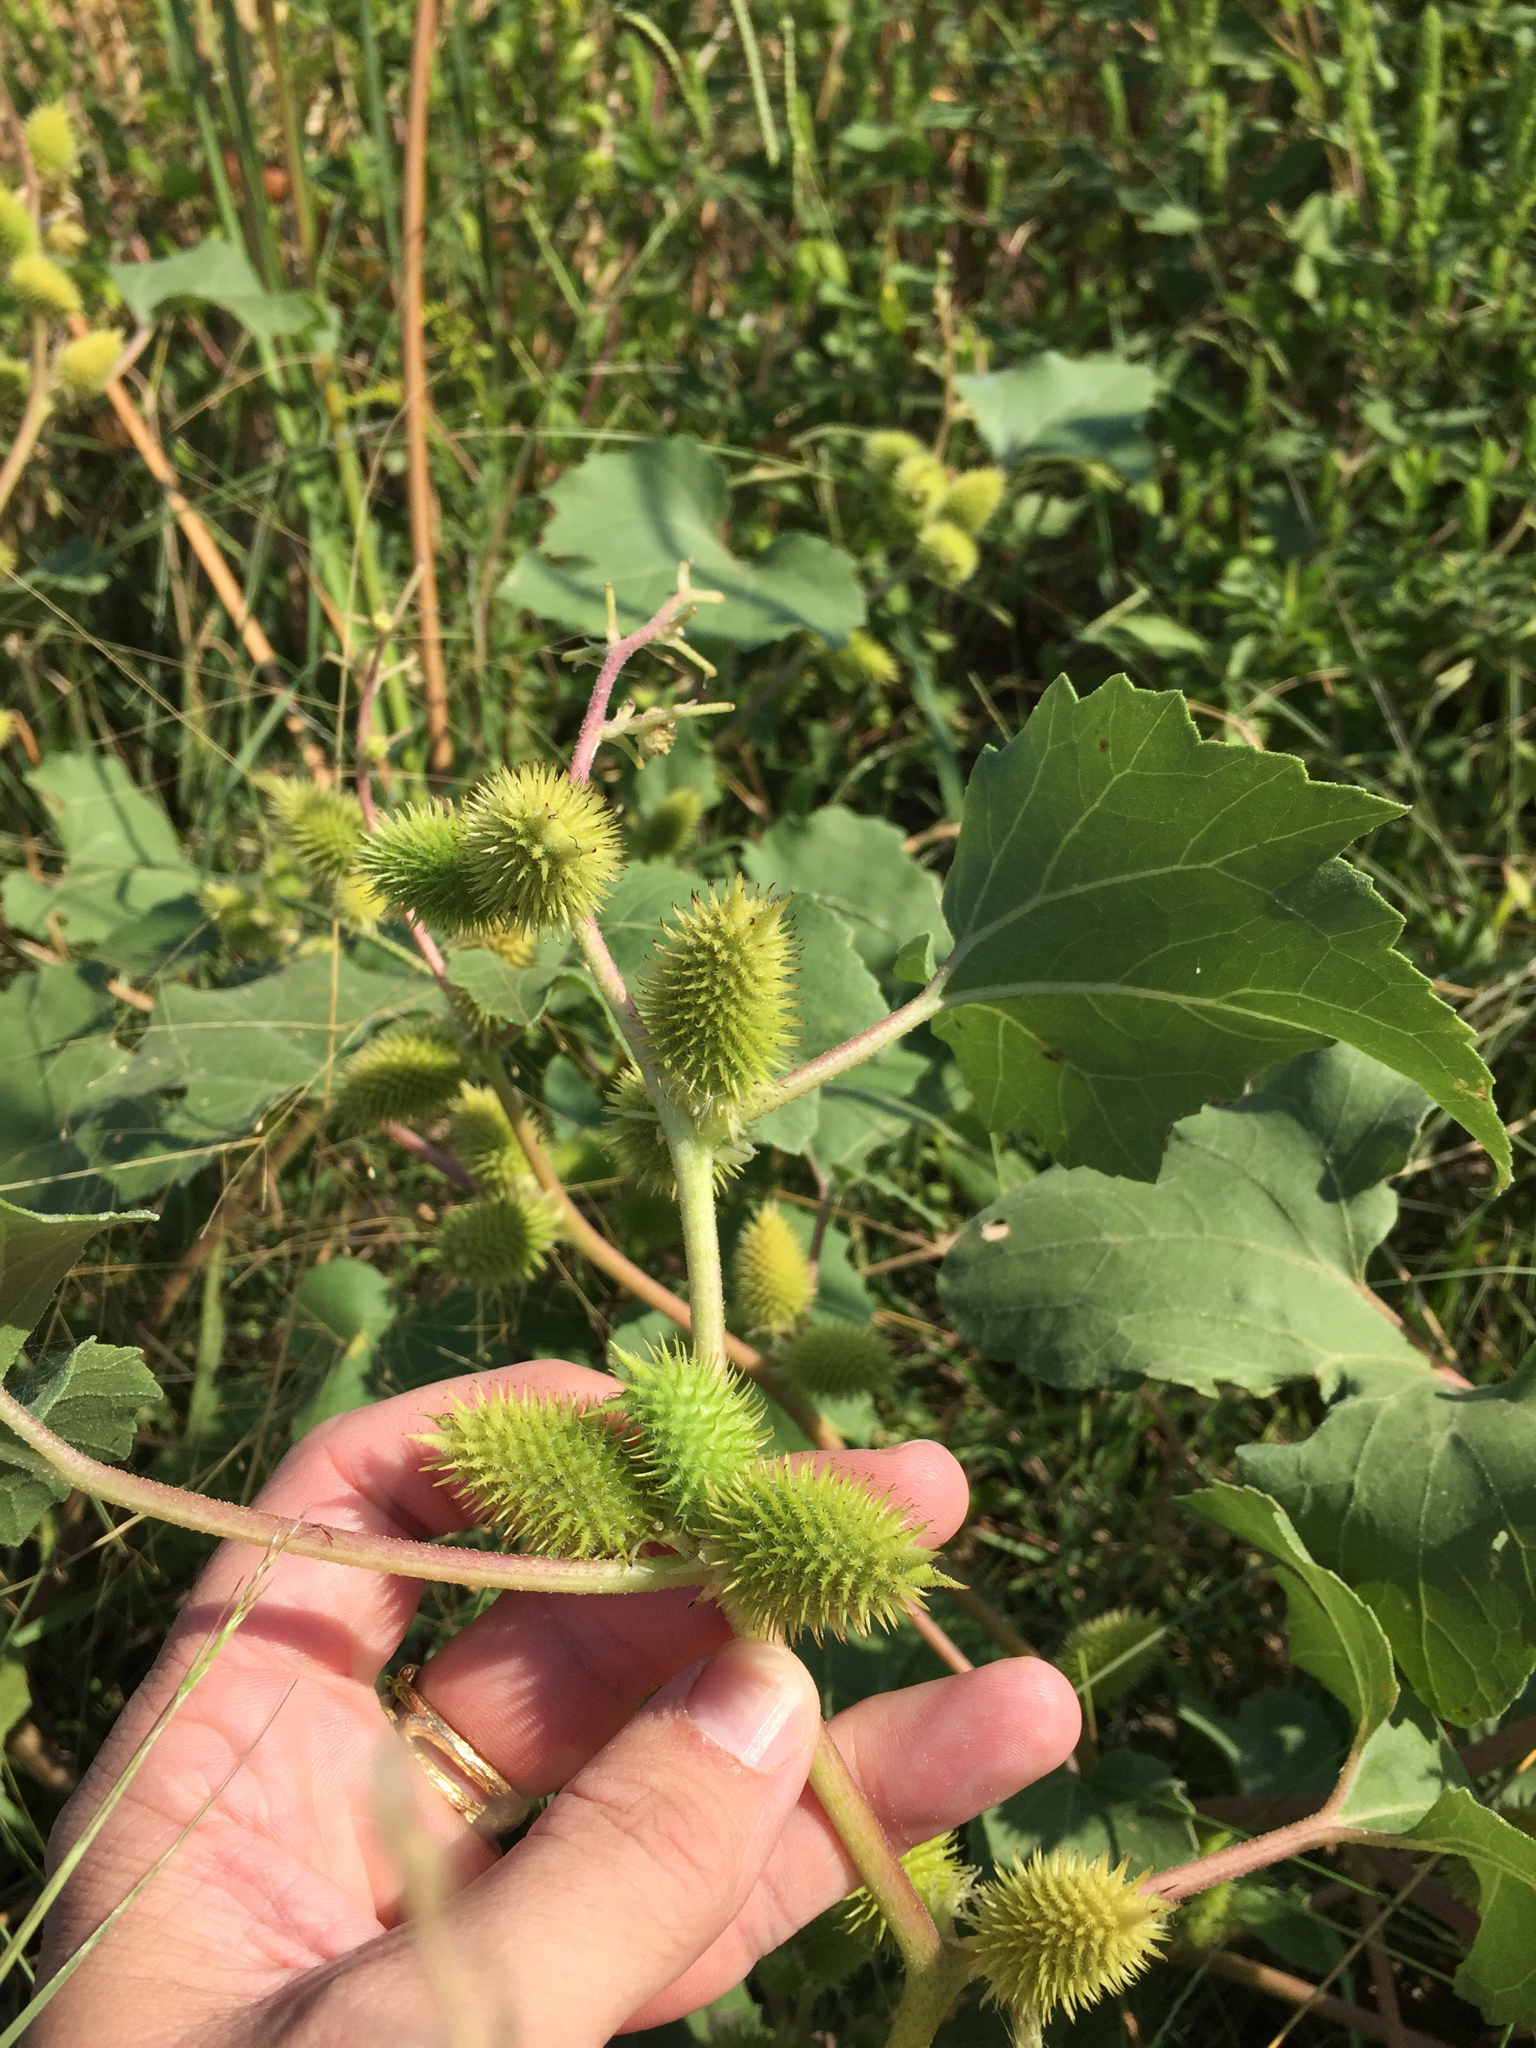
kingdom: Plantae
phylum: Tracheophyta
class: Magnoliopsida
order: Asterales
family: Asteraceae
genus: Xanthium
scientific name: Xanthium strumarium
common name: Rough cocklebur
